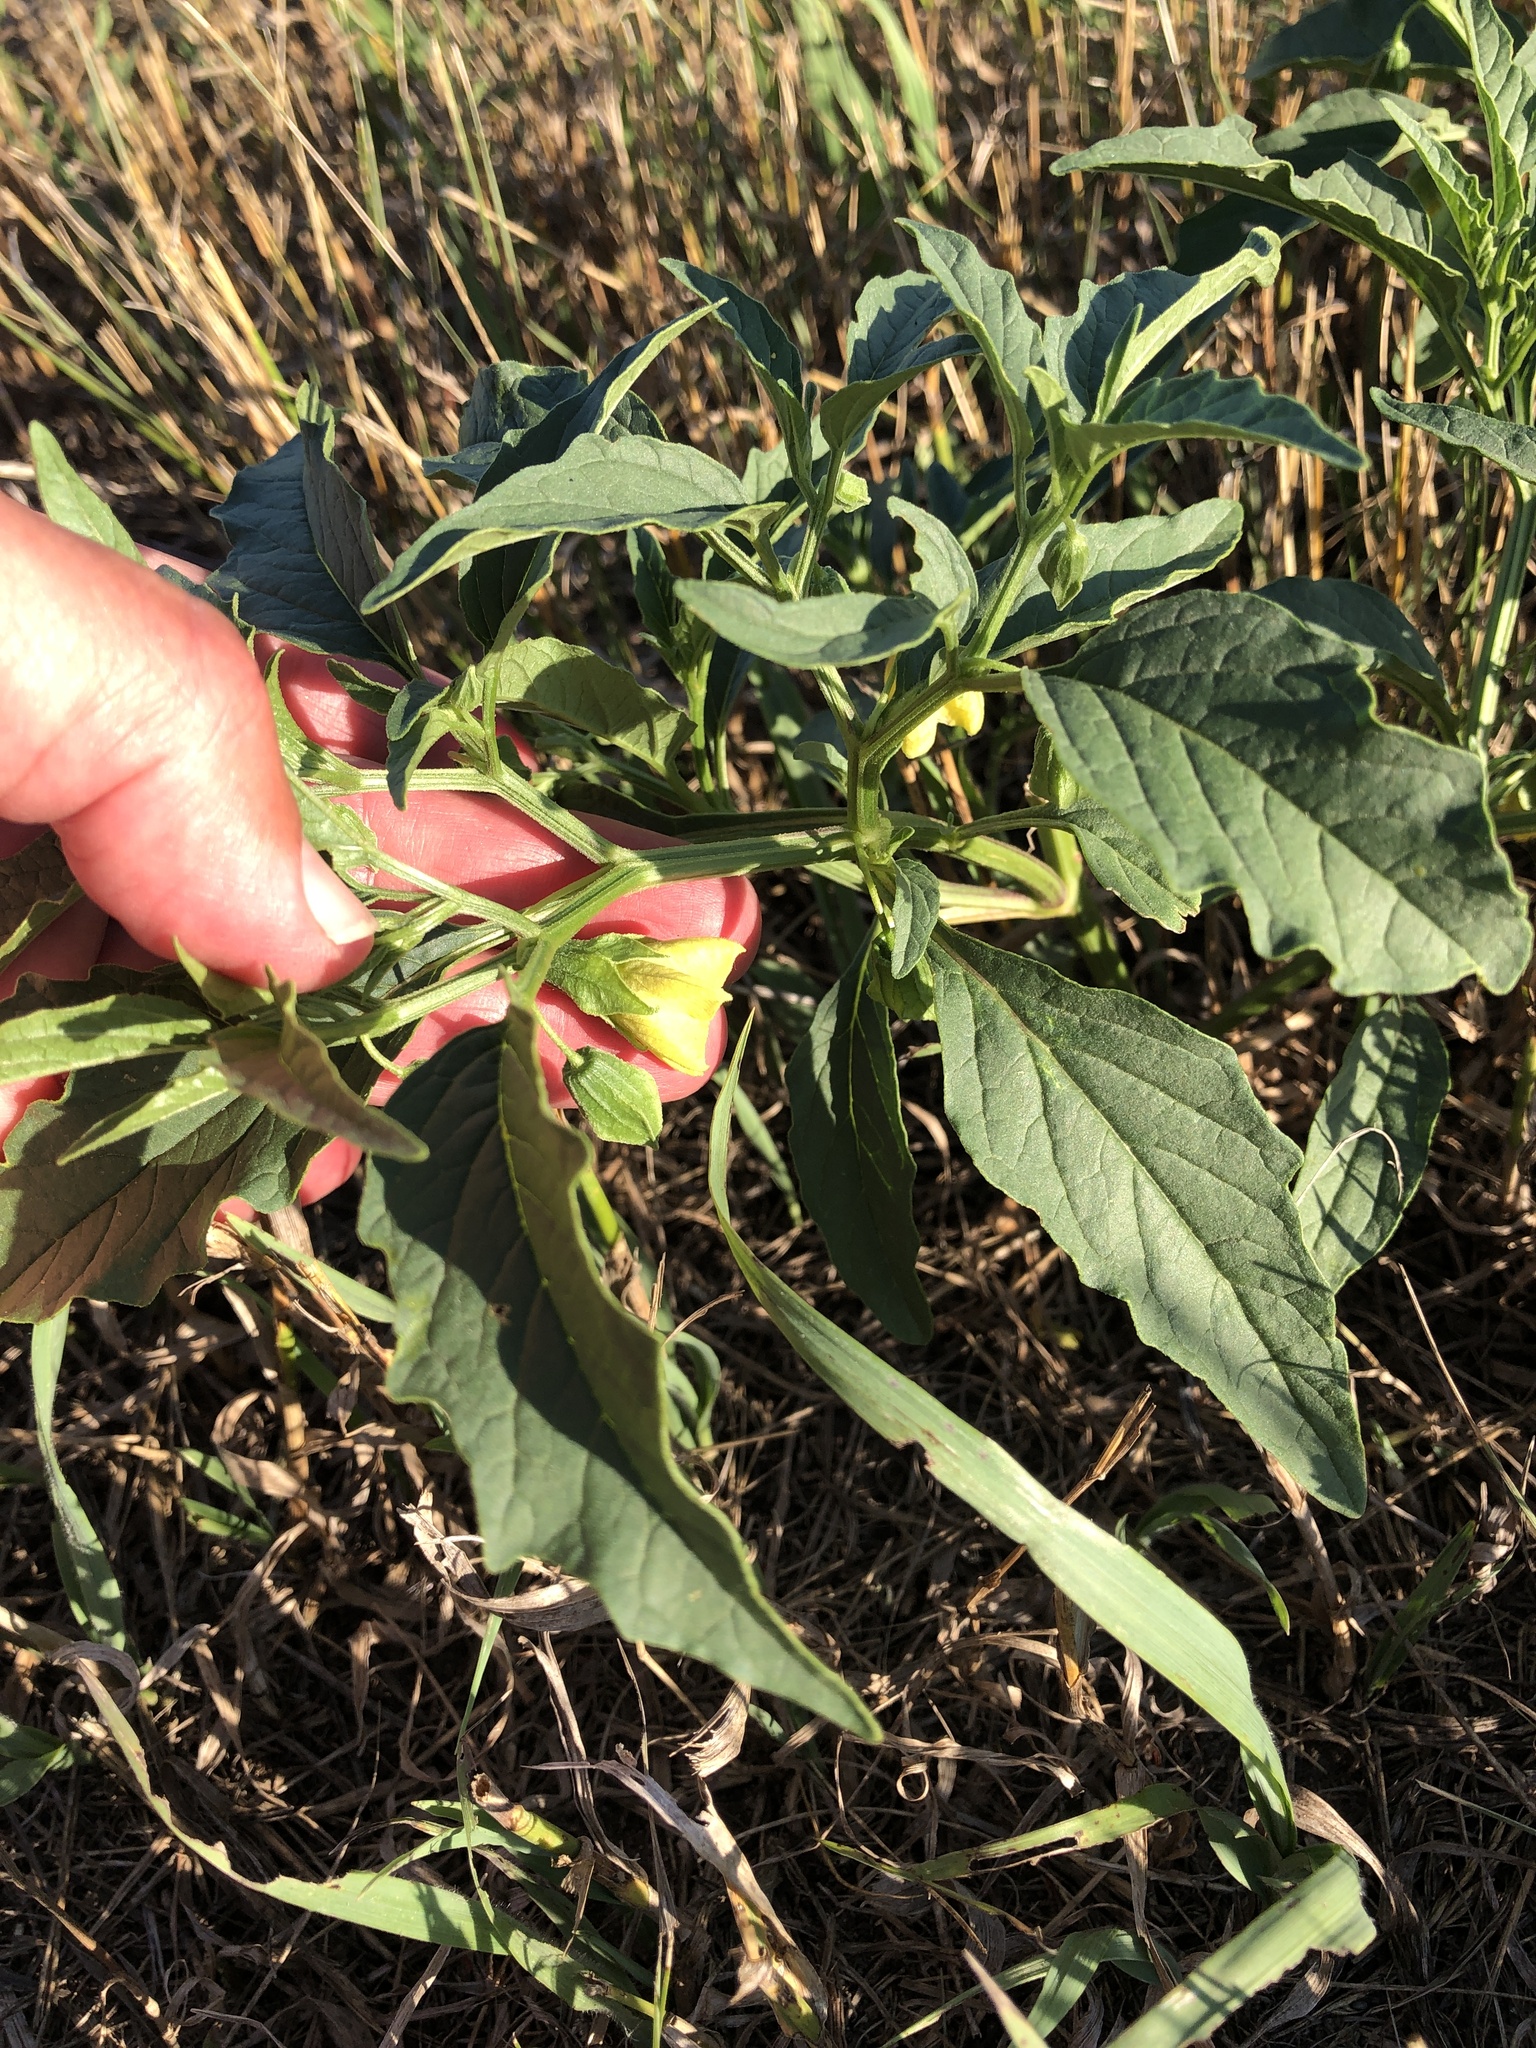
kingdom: Plantae
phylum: Tracheophyta
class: Magnoliopsida
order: Solanales
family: Solanaceae
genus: Physalis
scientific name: Physalis longifolia
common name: Common ground-cherry
